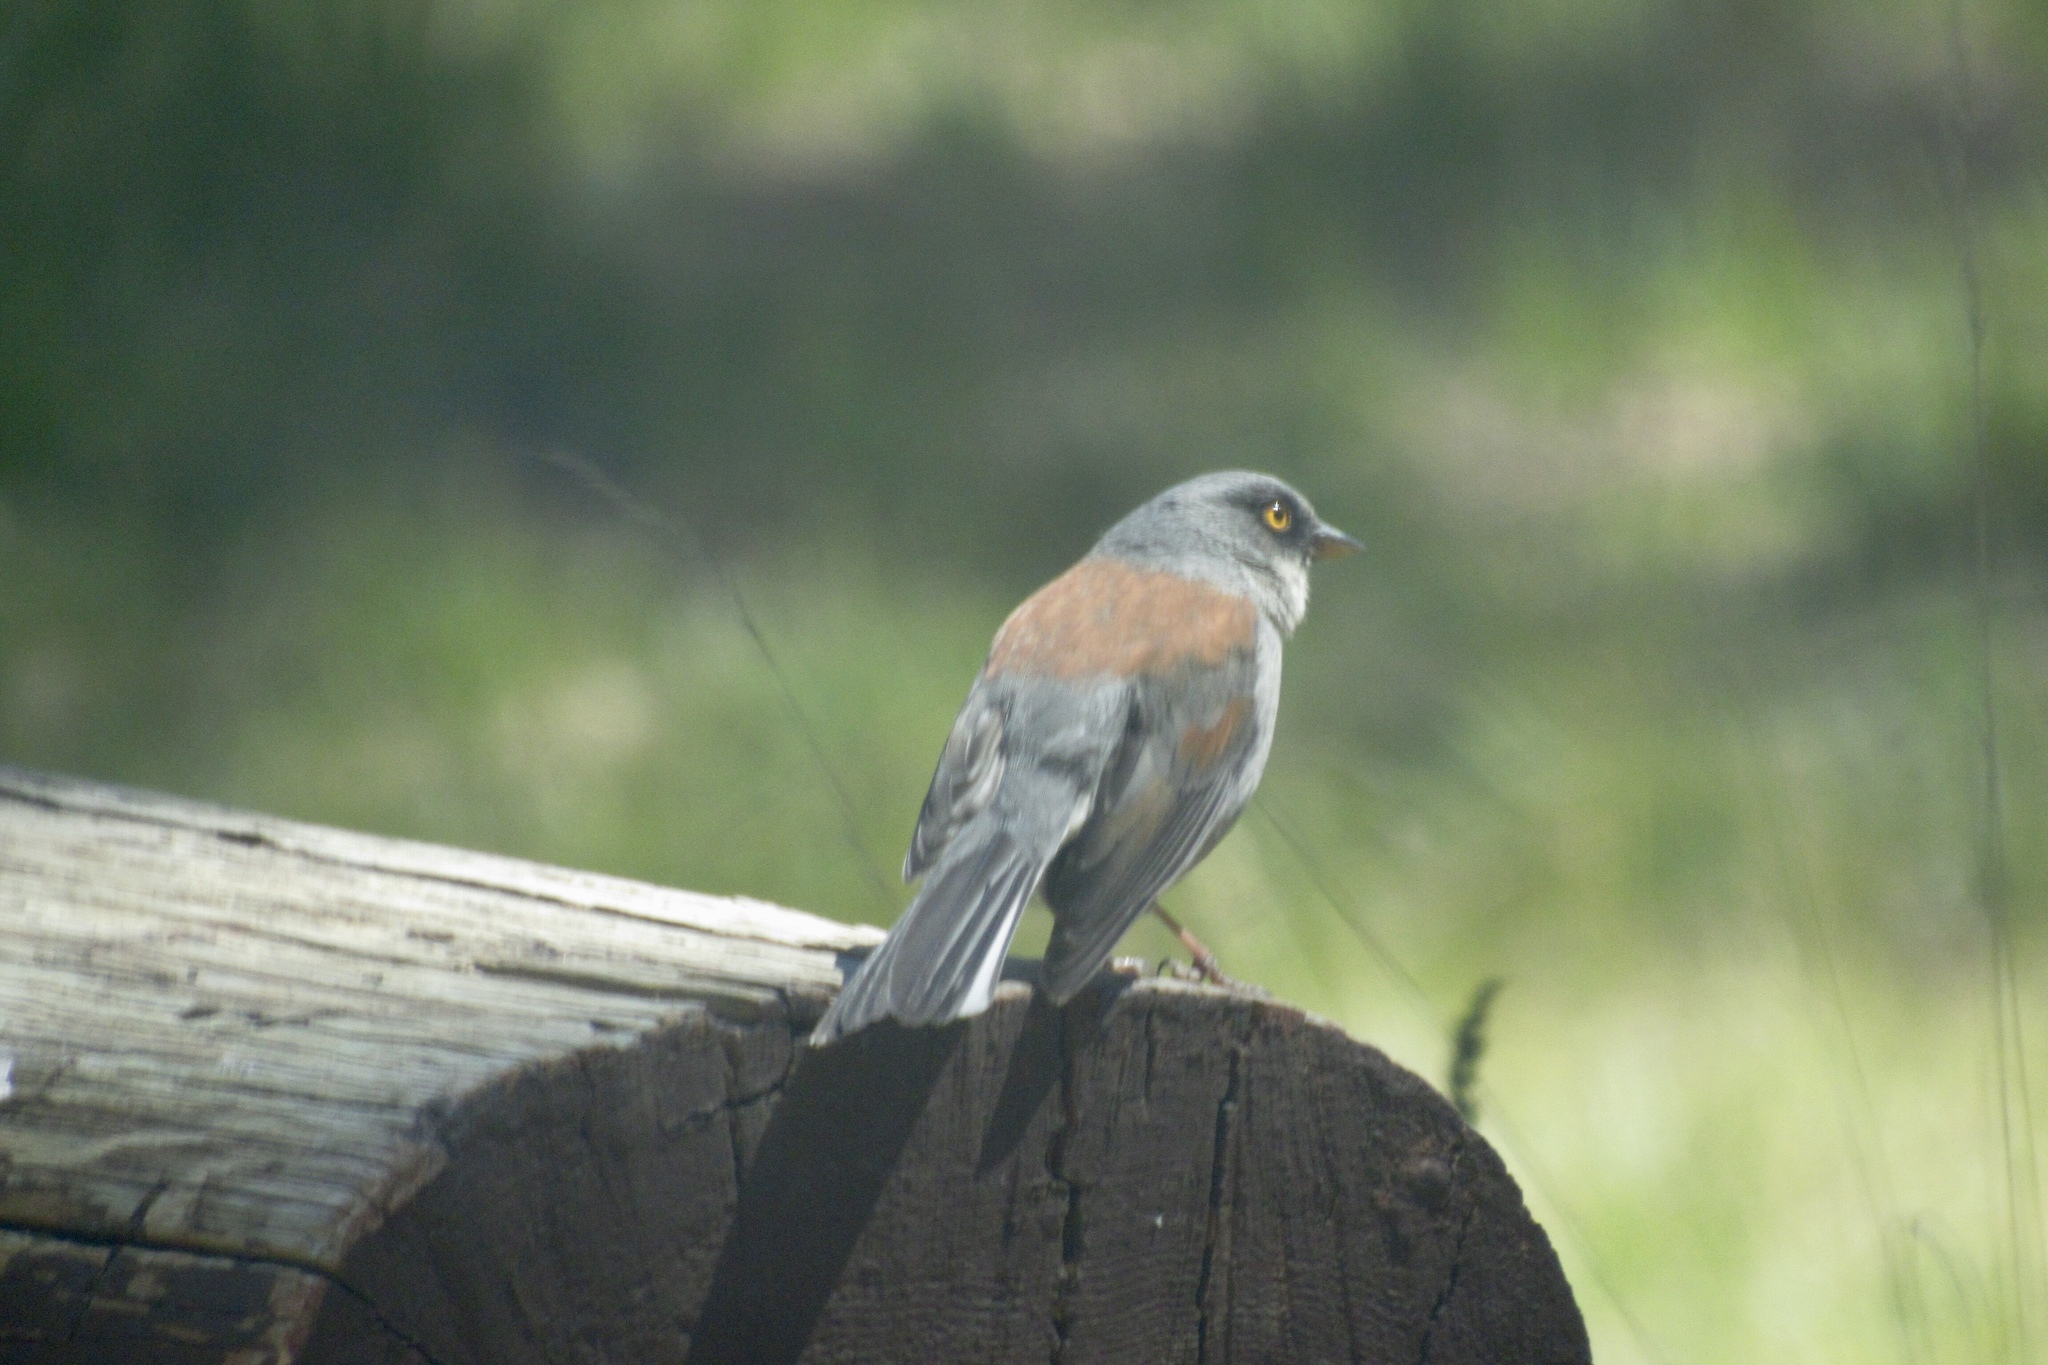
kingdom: Animalia
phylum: Chordata
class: Aves
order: Passeriformes
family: Passerellidae
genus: Junco
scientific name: Junco phaeonotus
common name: Yellow-eyed junco
